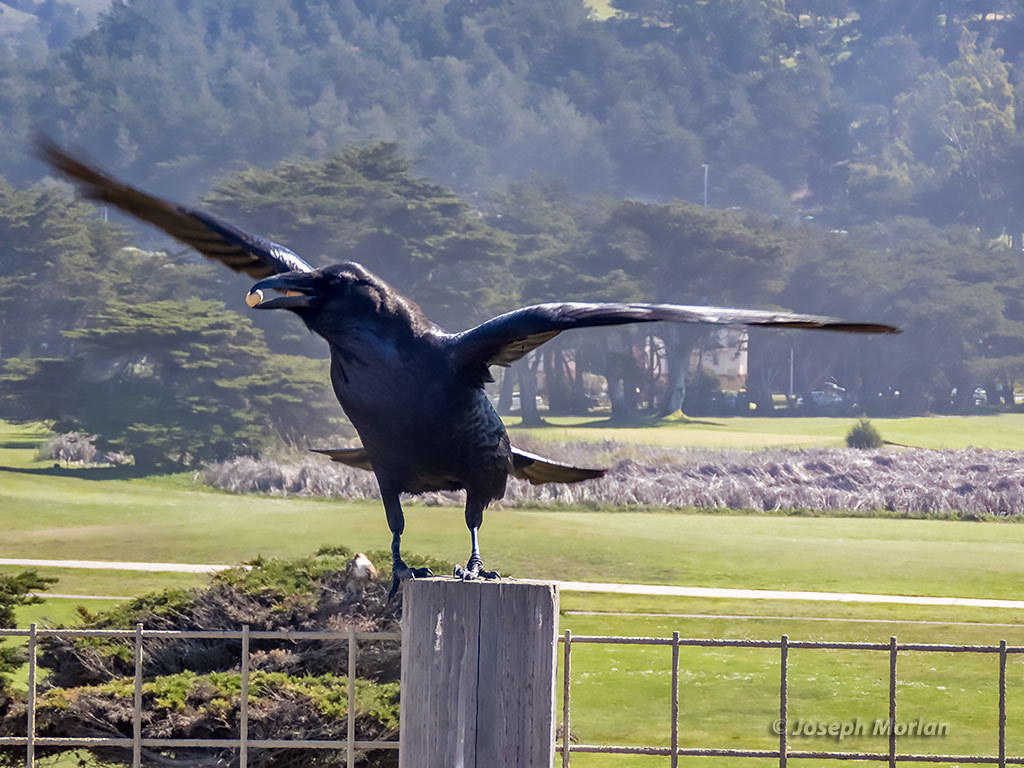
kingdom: Animalia
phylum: Chordata
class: Aves
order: Passeriformes
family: Corvidae
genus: Corvus
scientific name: Corvus corax
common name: Common raven
